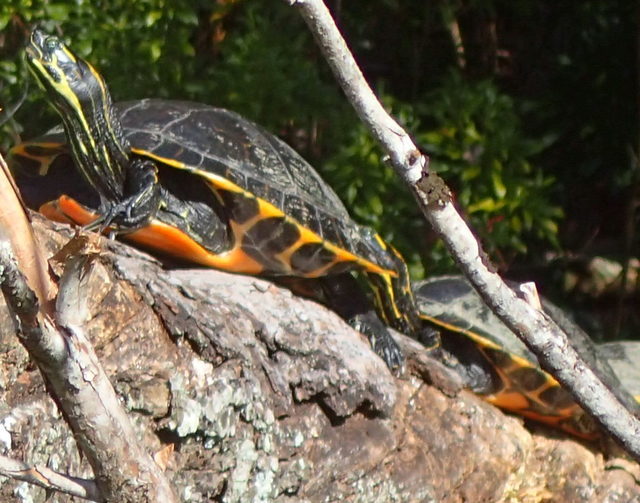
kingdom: Animalia
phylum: Chordata
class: Testudines
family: Emydidae
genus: Pseudemys
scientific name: Pseudemys nelsoni
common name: Florida red-bellied turtle
